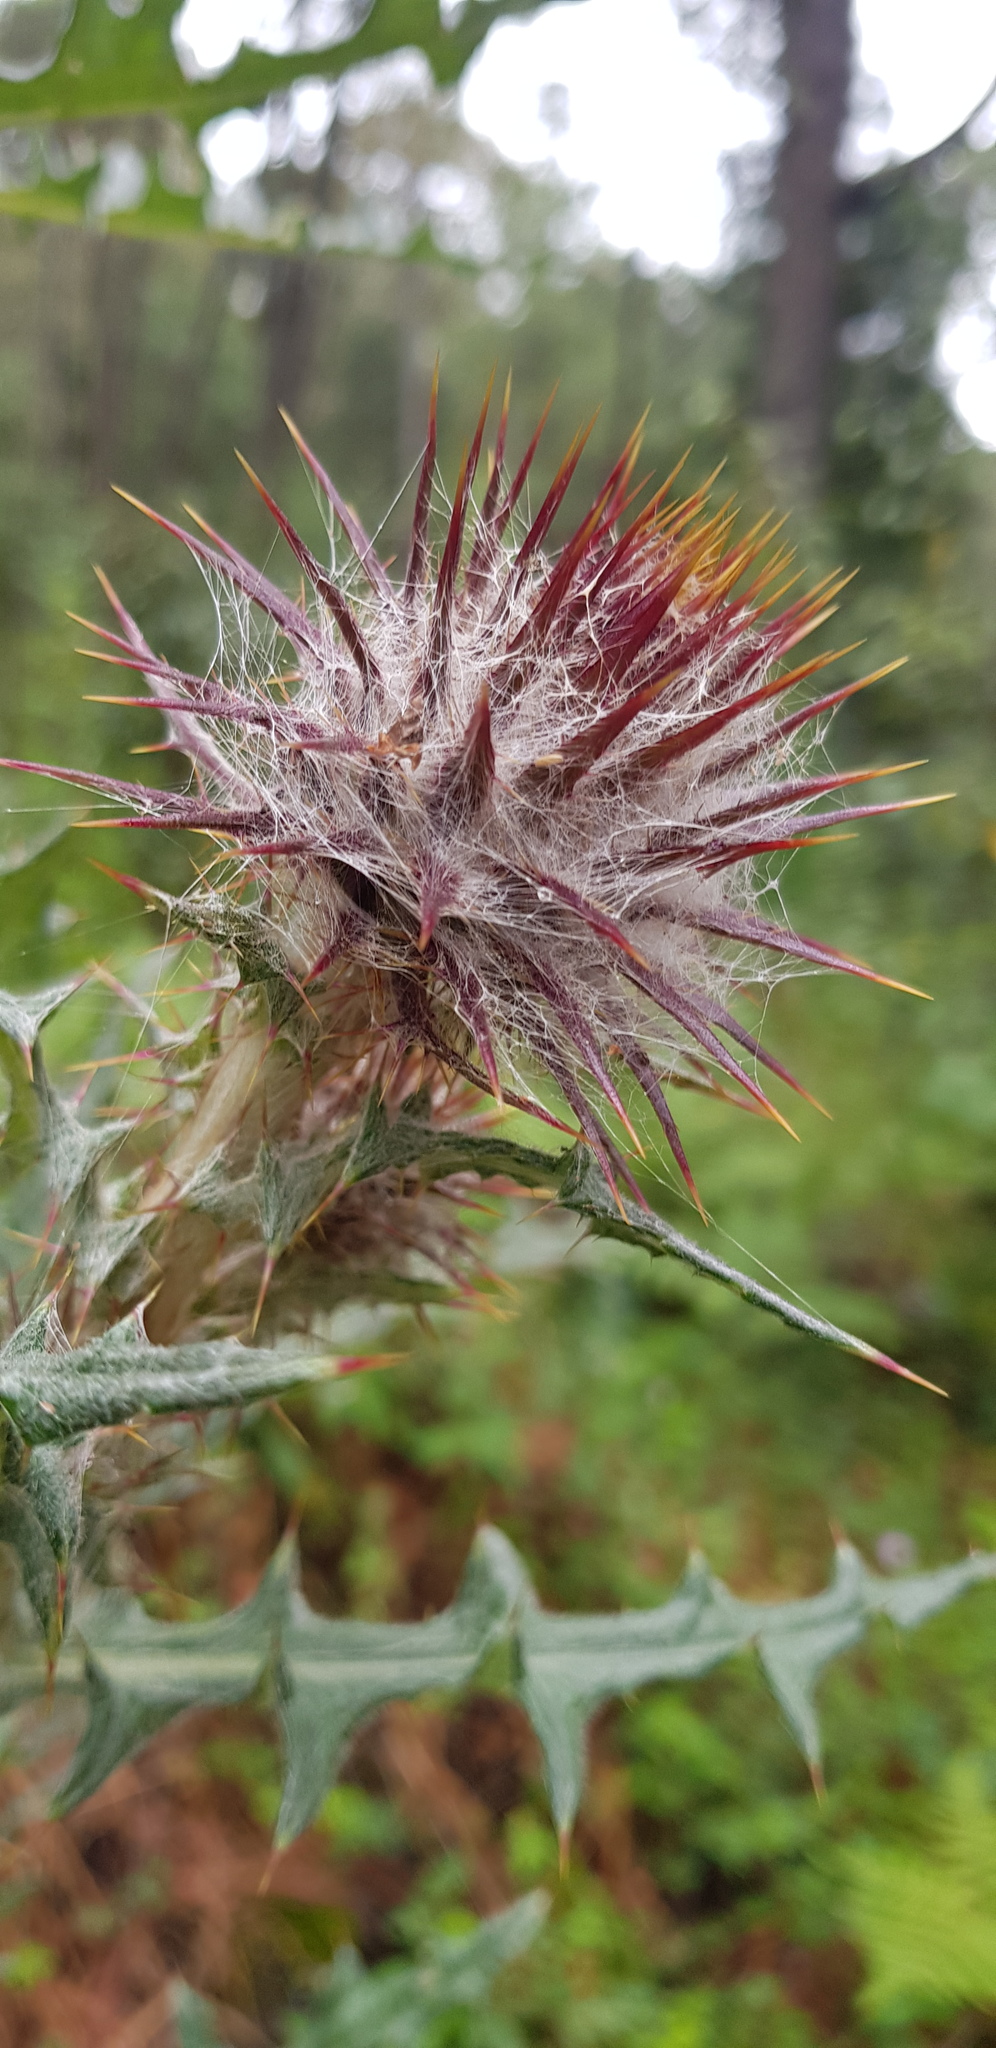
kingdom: Plantae
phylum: Tracheophyta
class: Magnoliopsida
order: Asterales
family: Asteraceae
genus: Cirsium
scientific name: Cirsium oaxacanum
